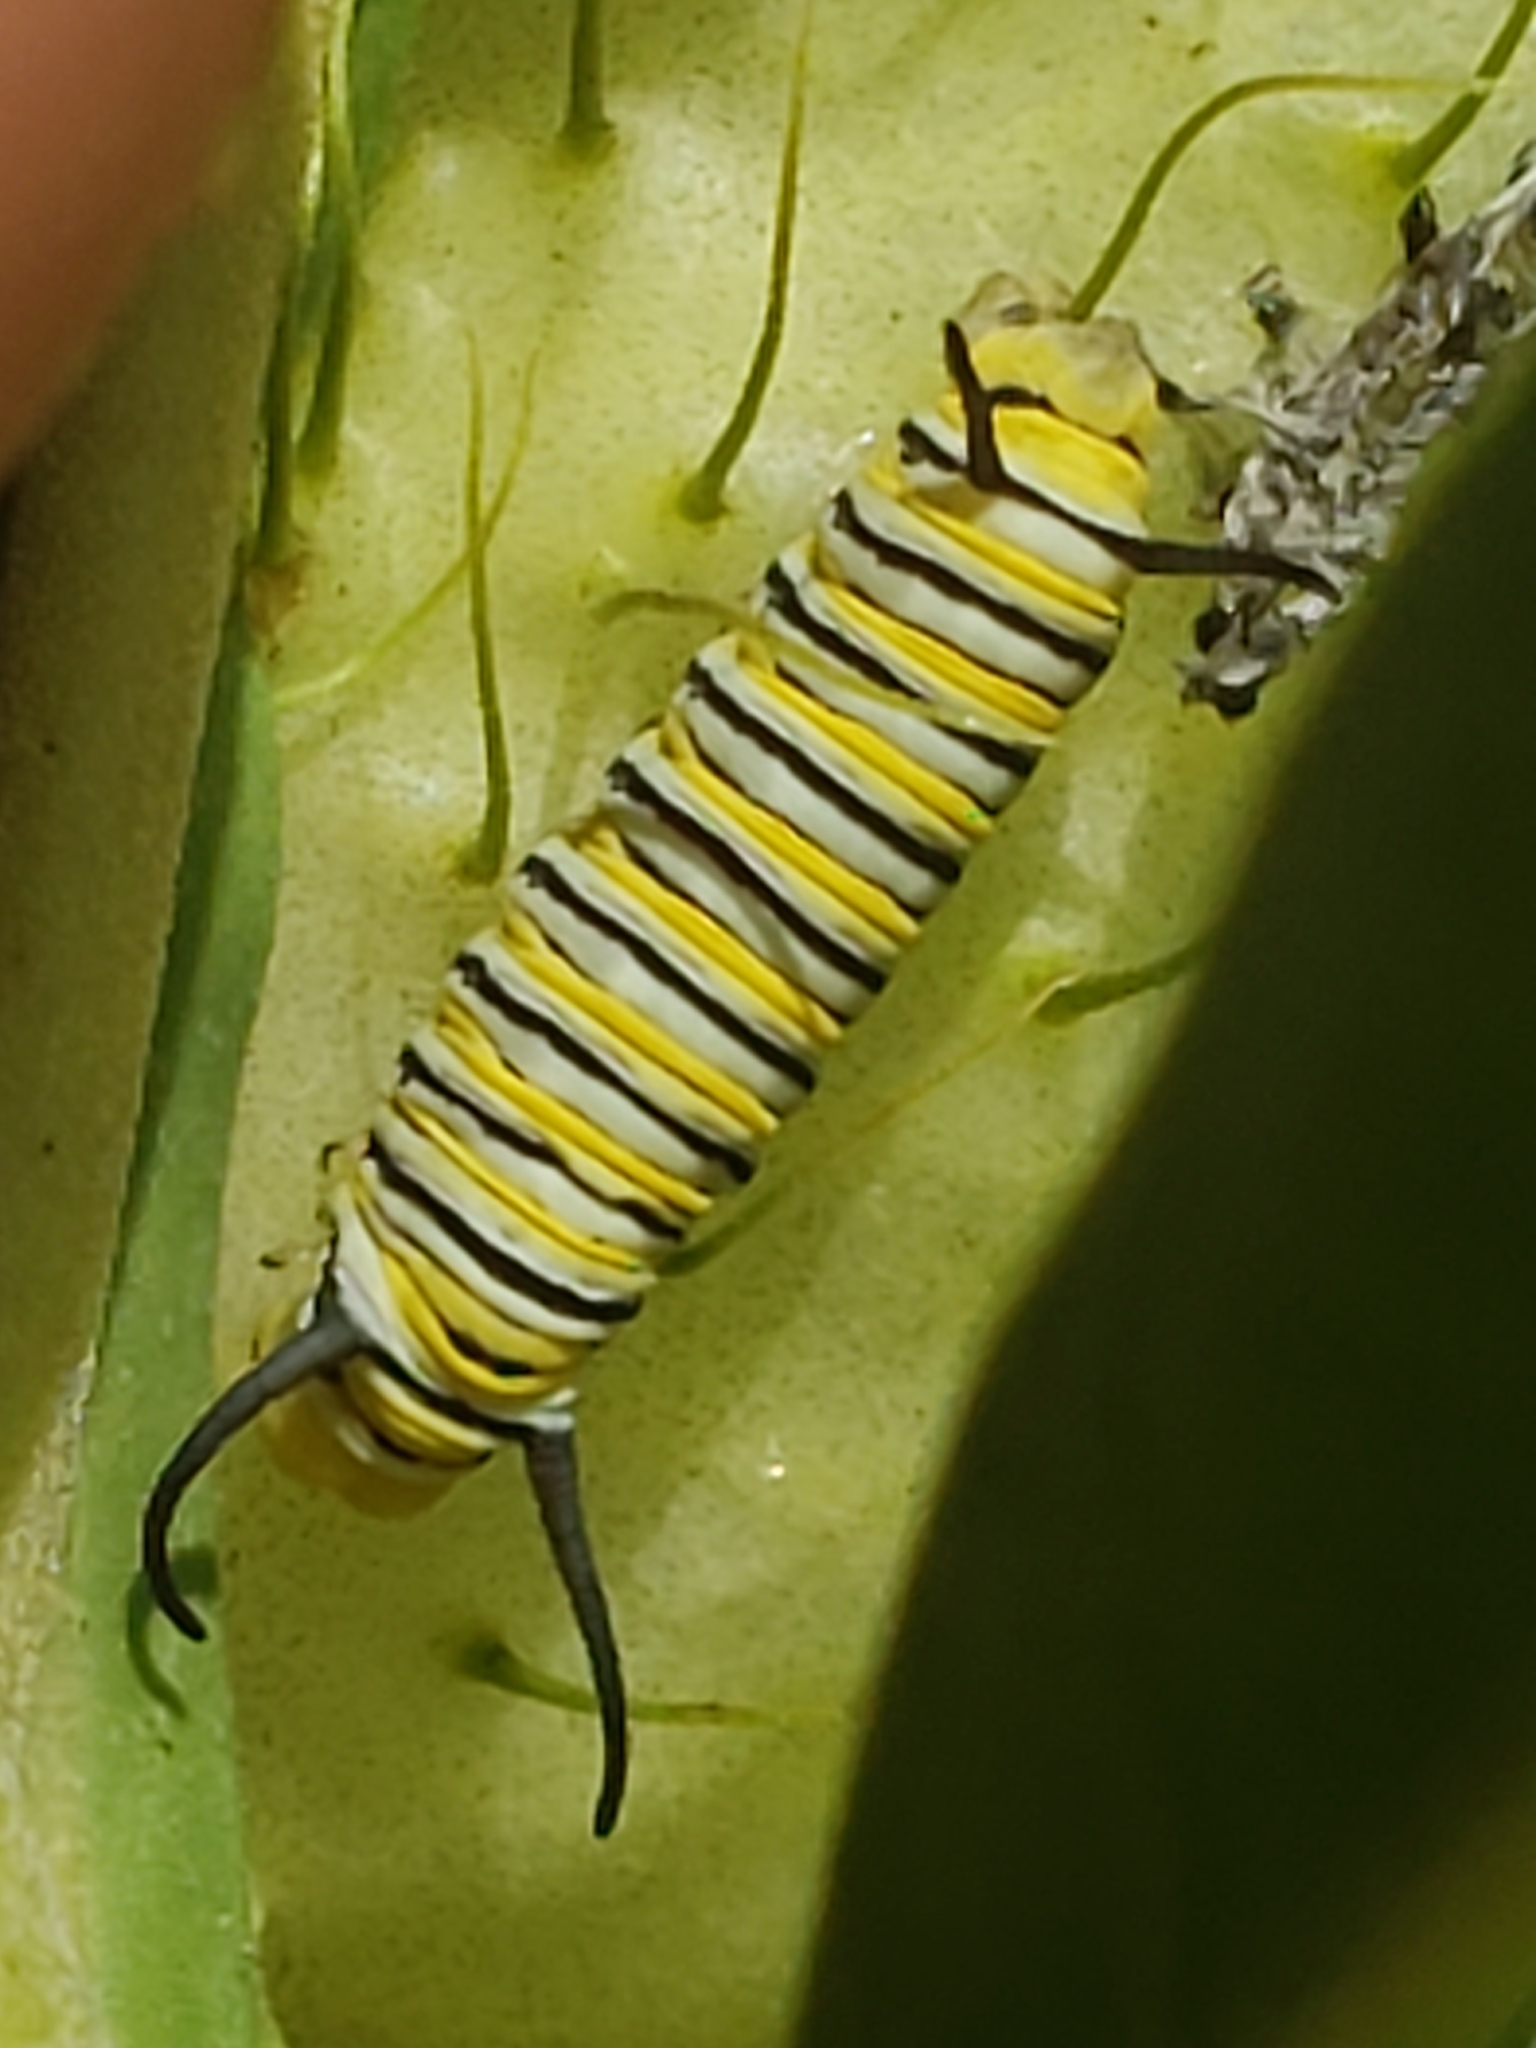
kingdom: Animalia
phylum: Arthropoda
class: Insecta
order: Lepidoptera
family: Nymphalidae
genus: Danaus
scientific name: Danaus plexippus
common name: Monarch
